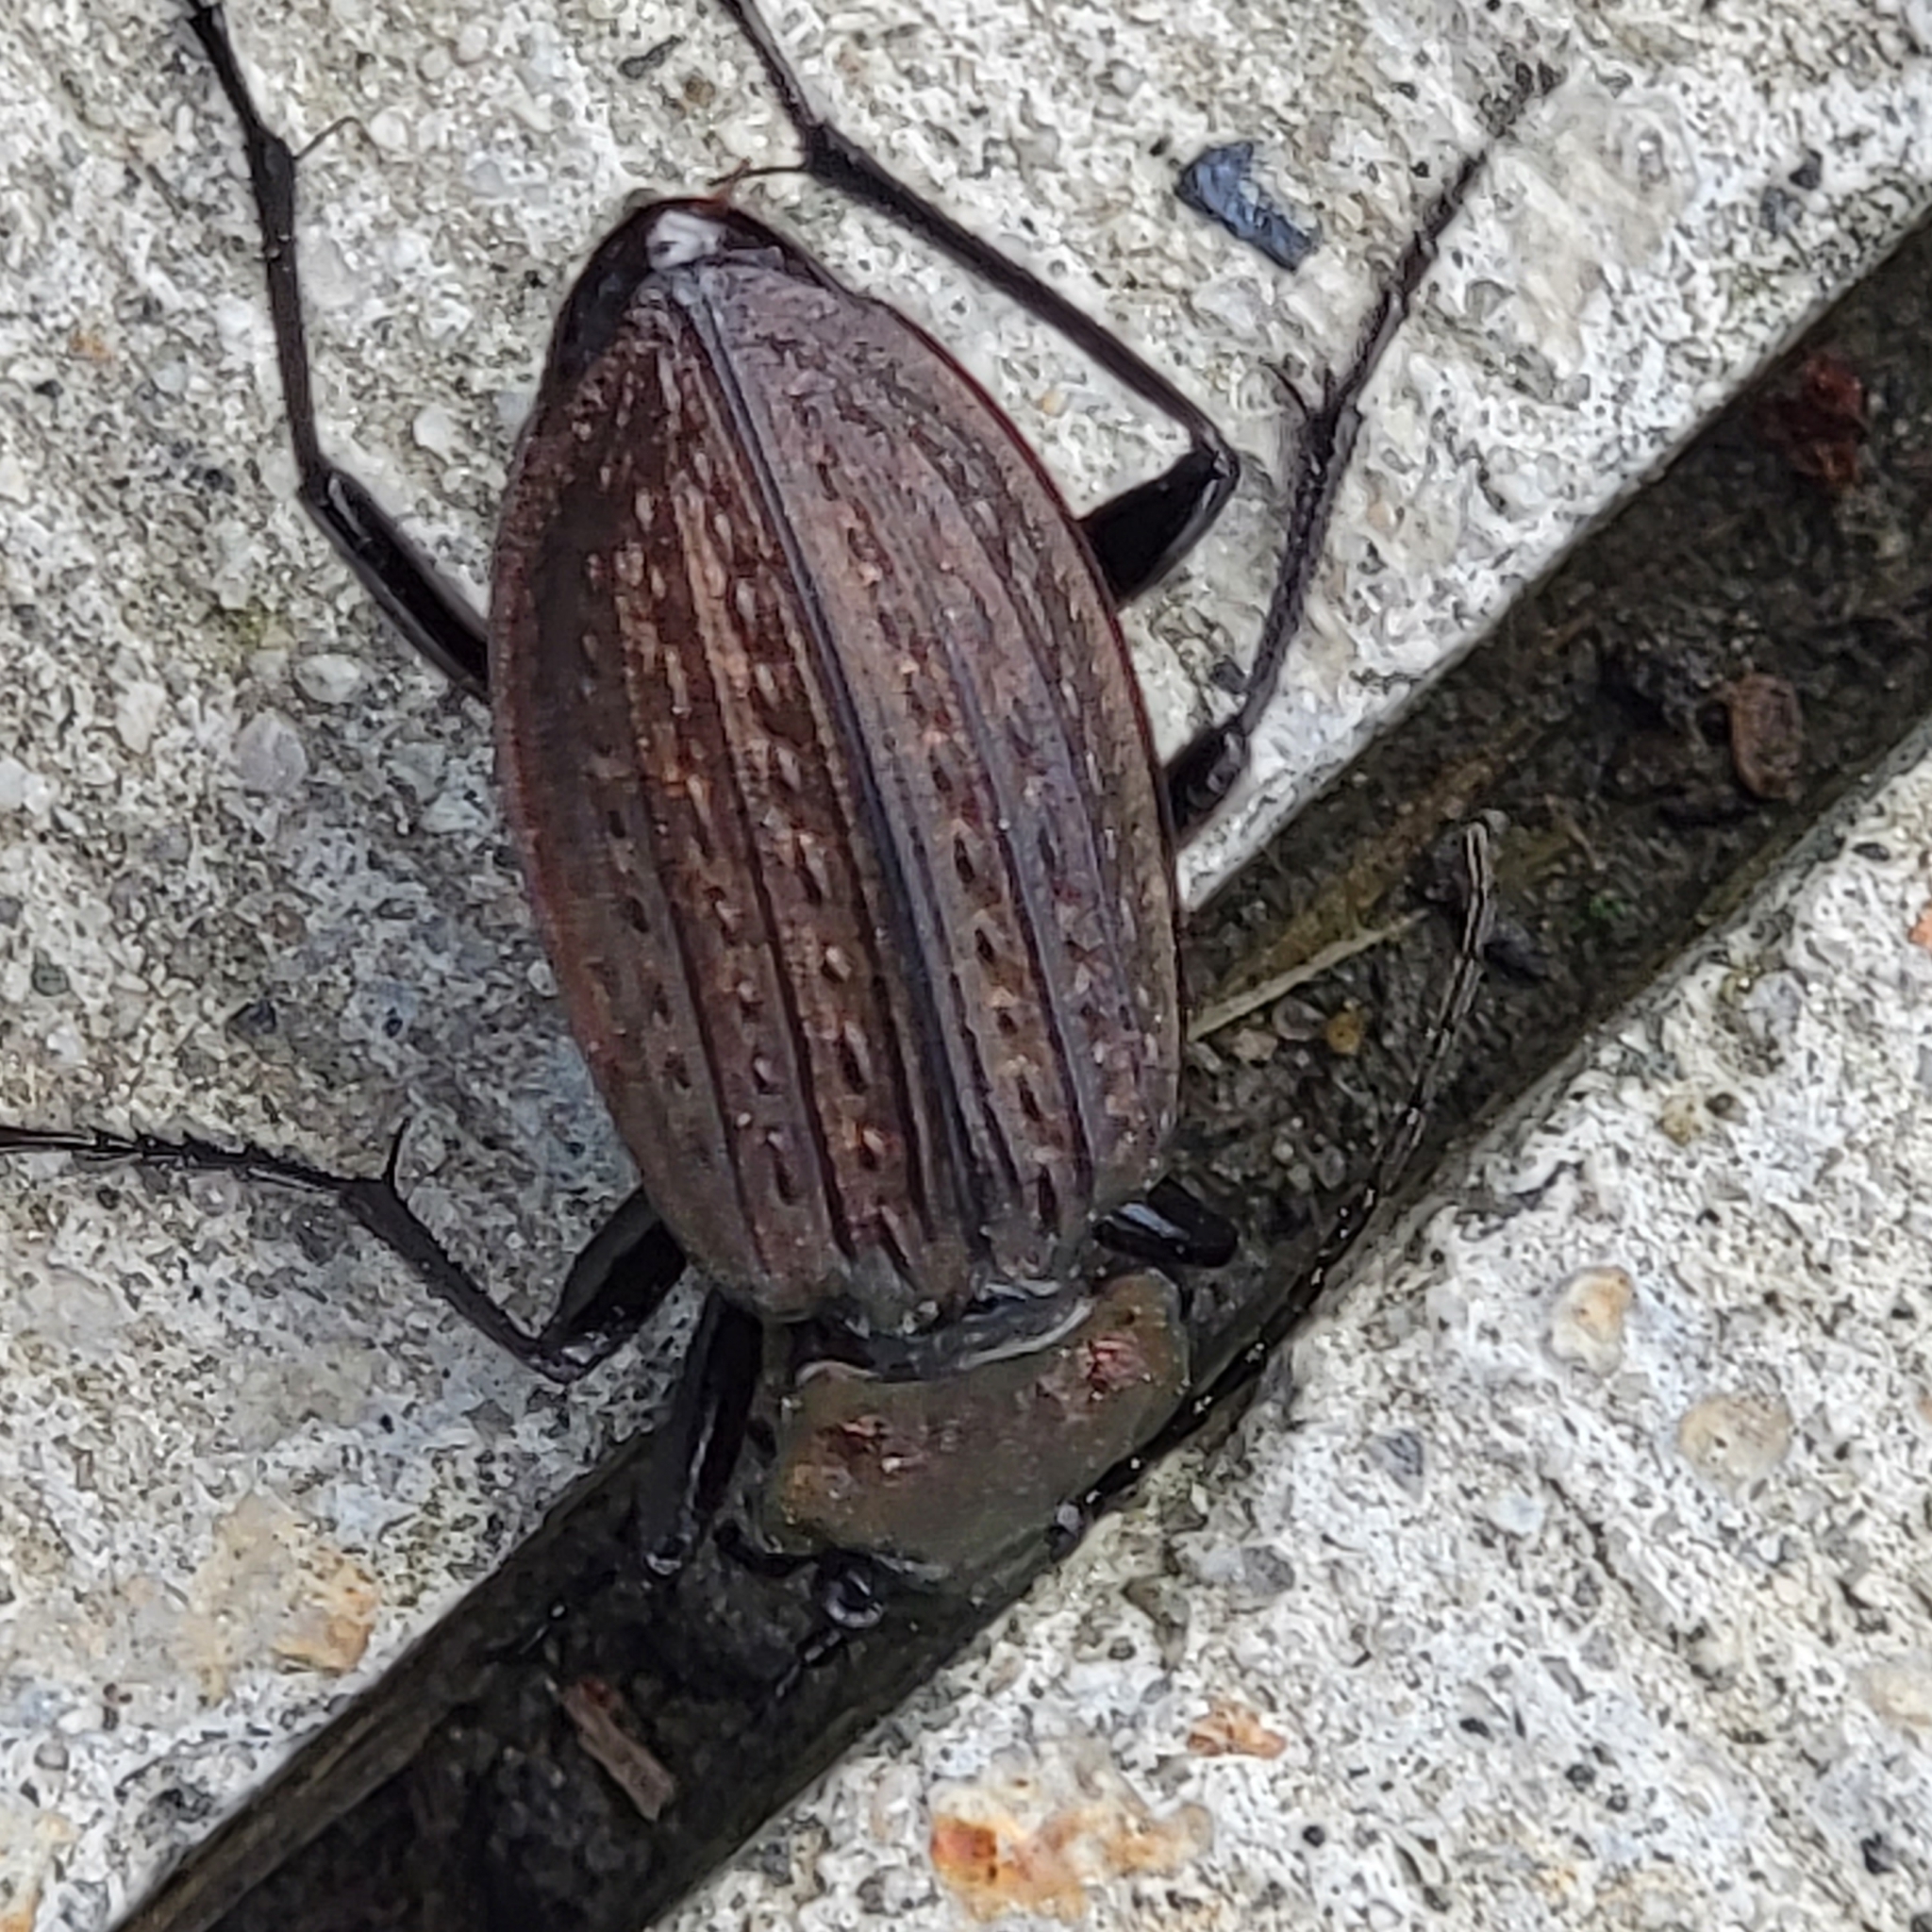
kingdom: Animalia
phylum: Arthropoda
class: Insecta
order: Coleoptera
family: Carabidae
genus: Carabus
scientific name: Carabus granulatus
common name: Granulate ground beetle
